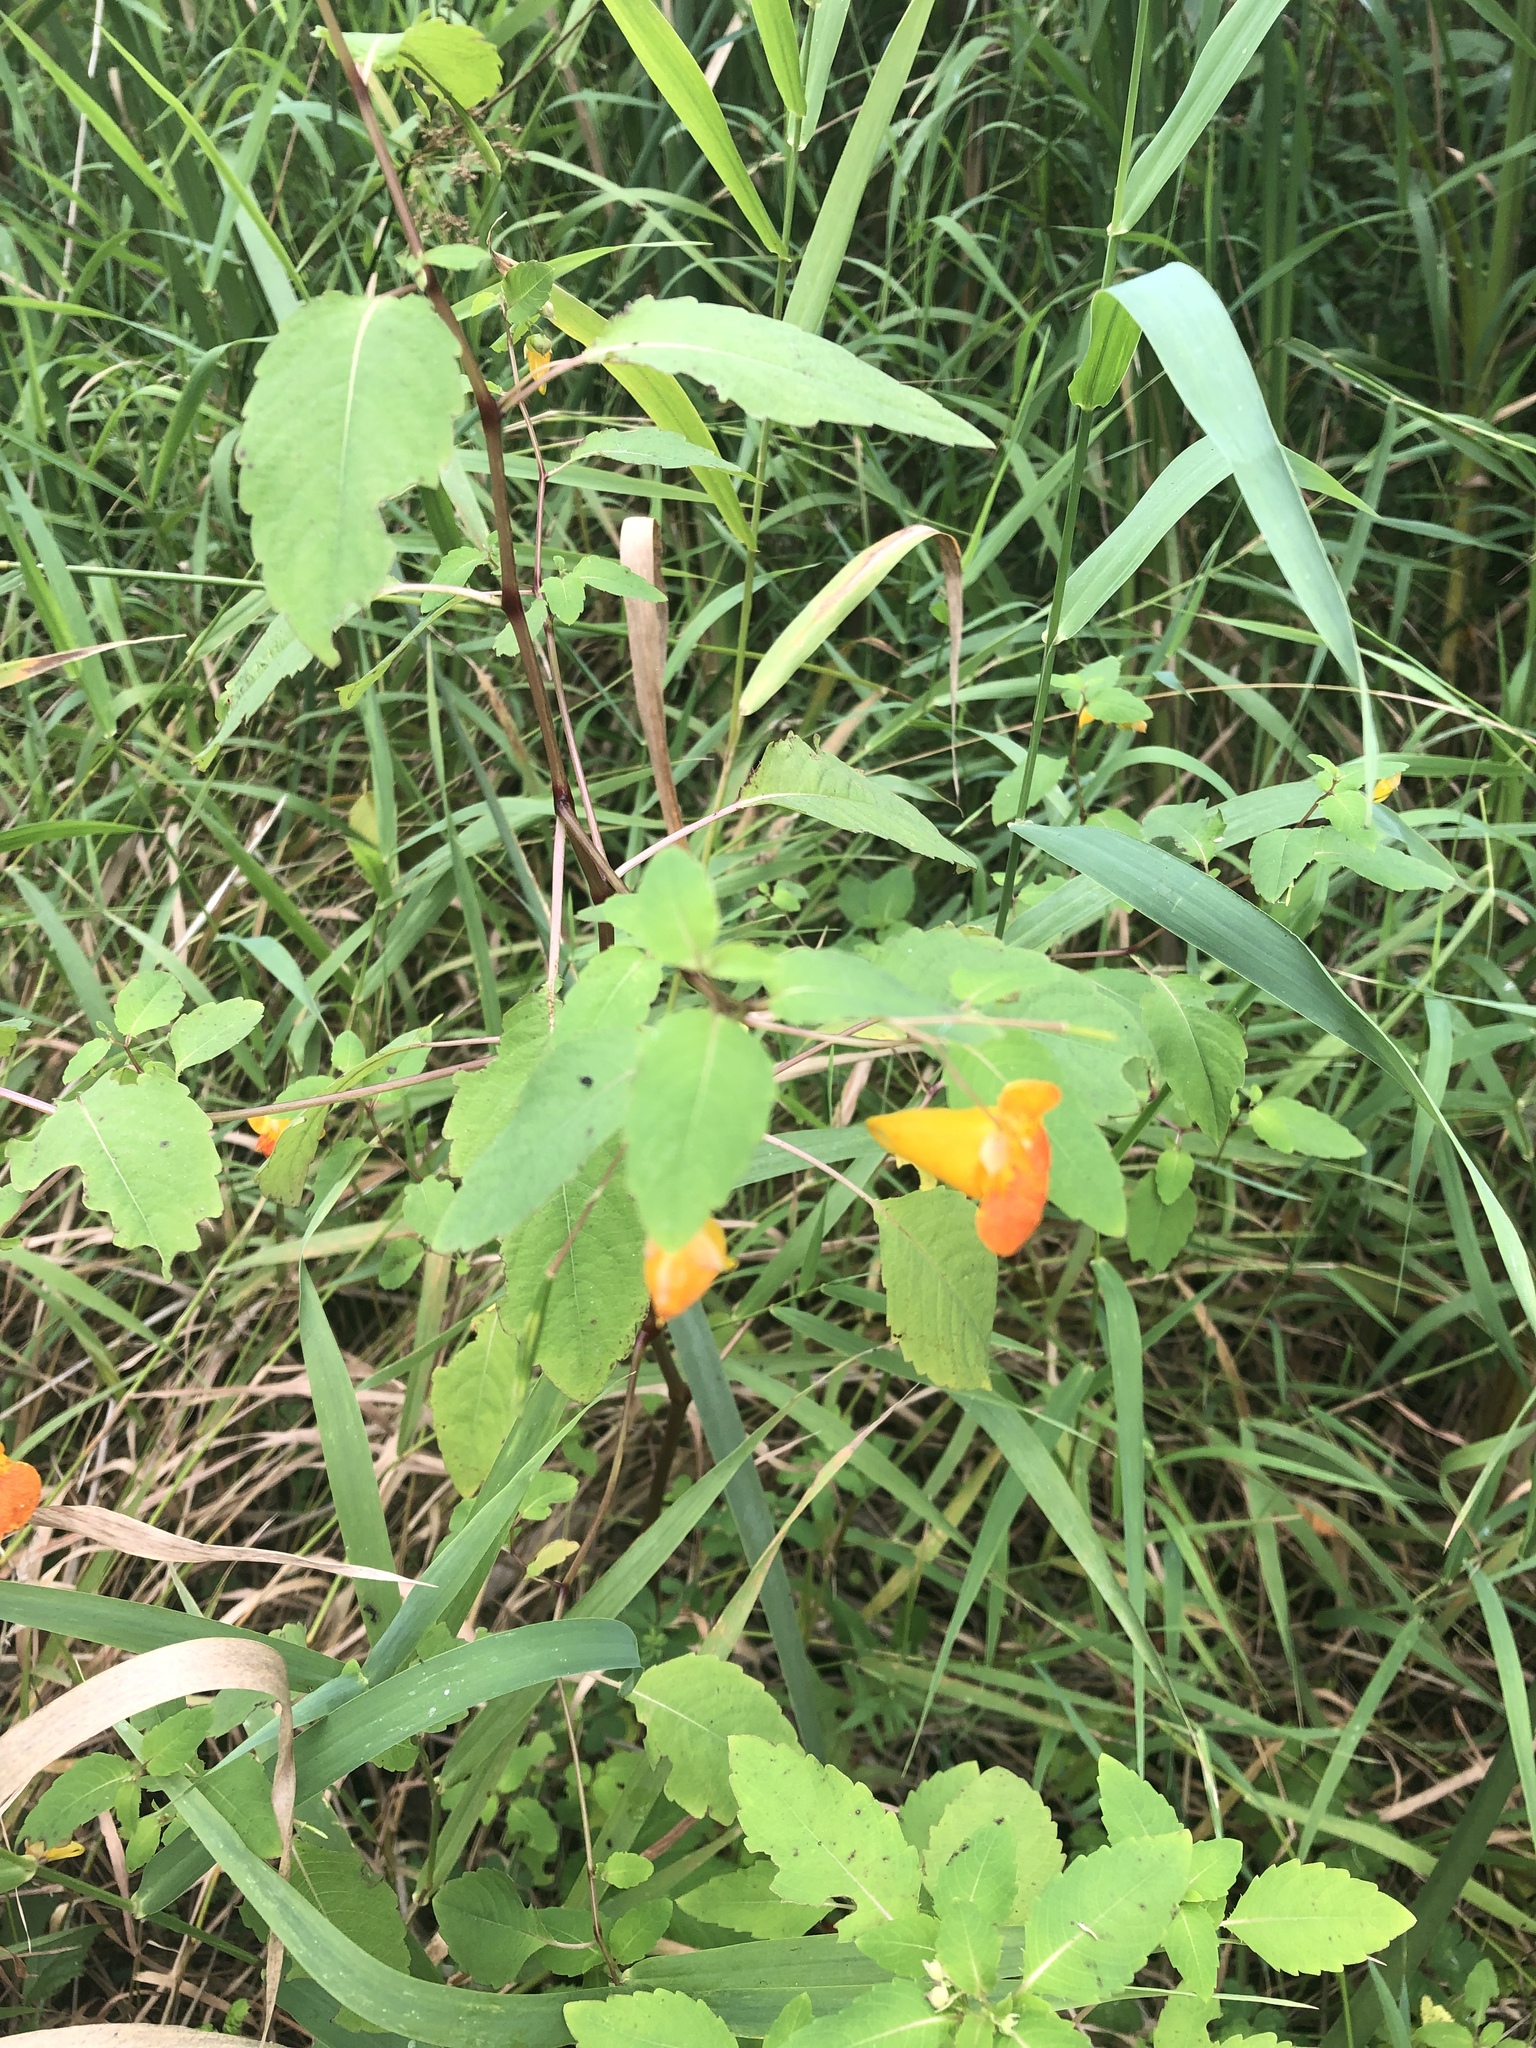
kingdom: Plantae
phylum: Tracheophyta
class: Magnoliopsida
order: Ericales
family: Balsaminaceae
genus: Impatiens
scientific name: Impatiens capensis
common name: Orange balsam
